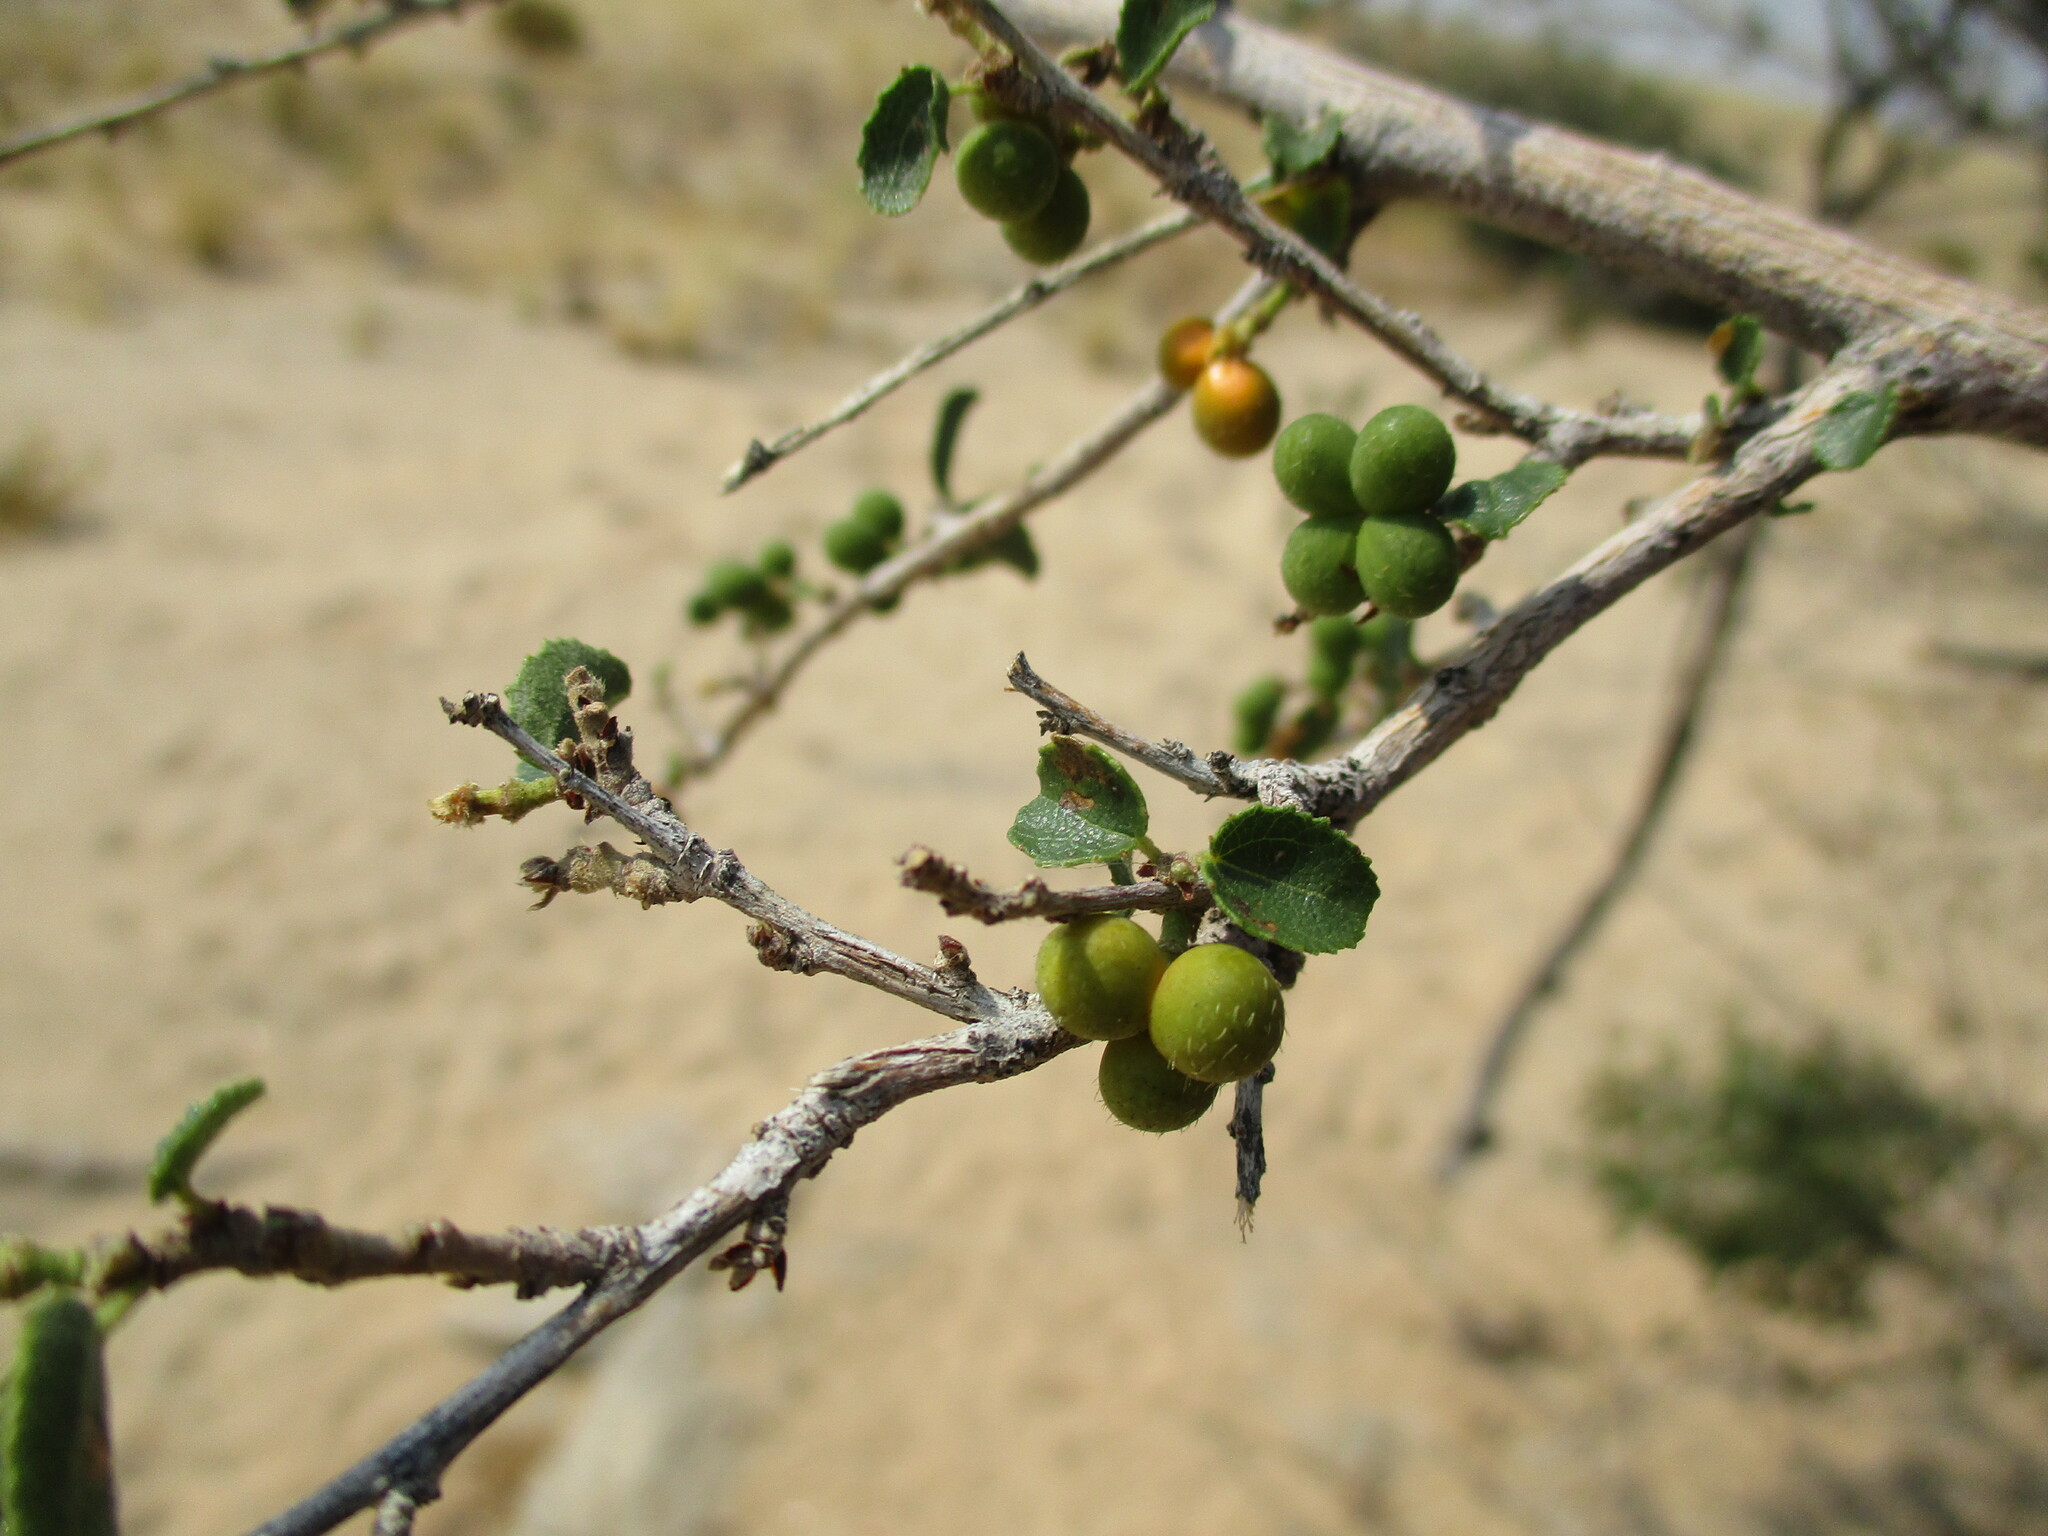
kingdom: Plantae
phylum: Tracheophyta
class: Magnoliopsida
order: Malvales
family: Malvaceae
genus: Grewia
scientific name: Grewia tenax
